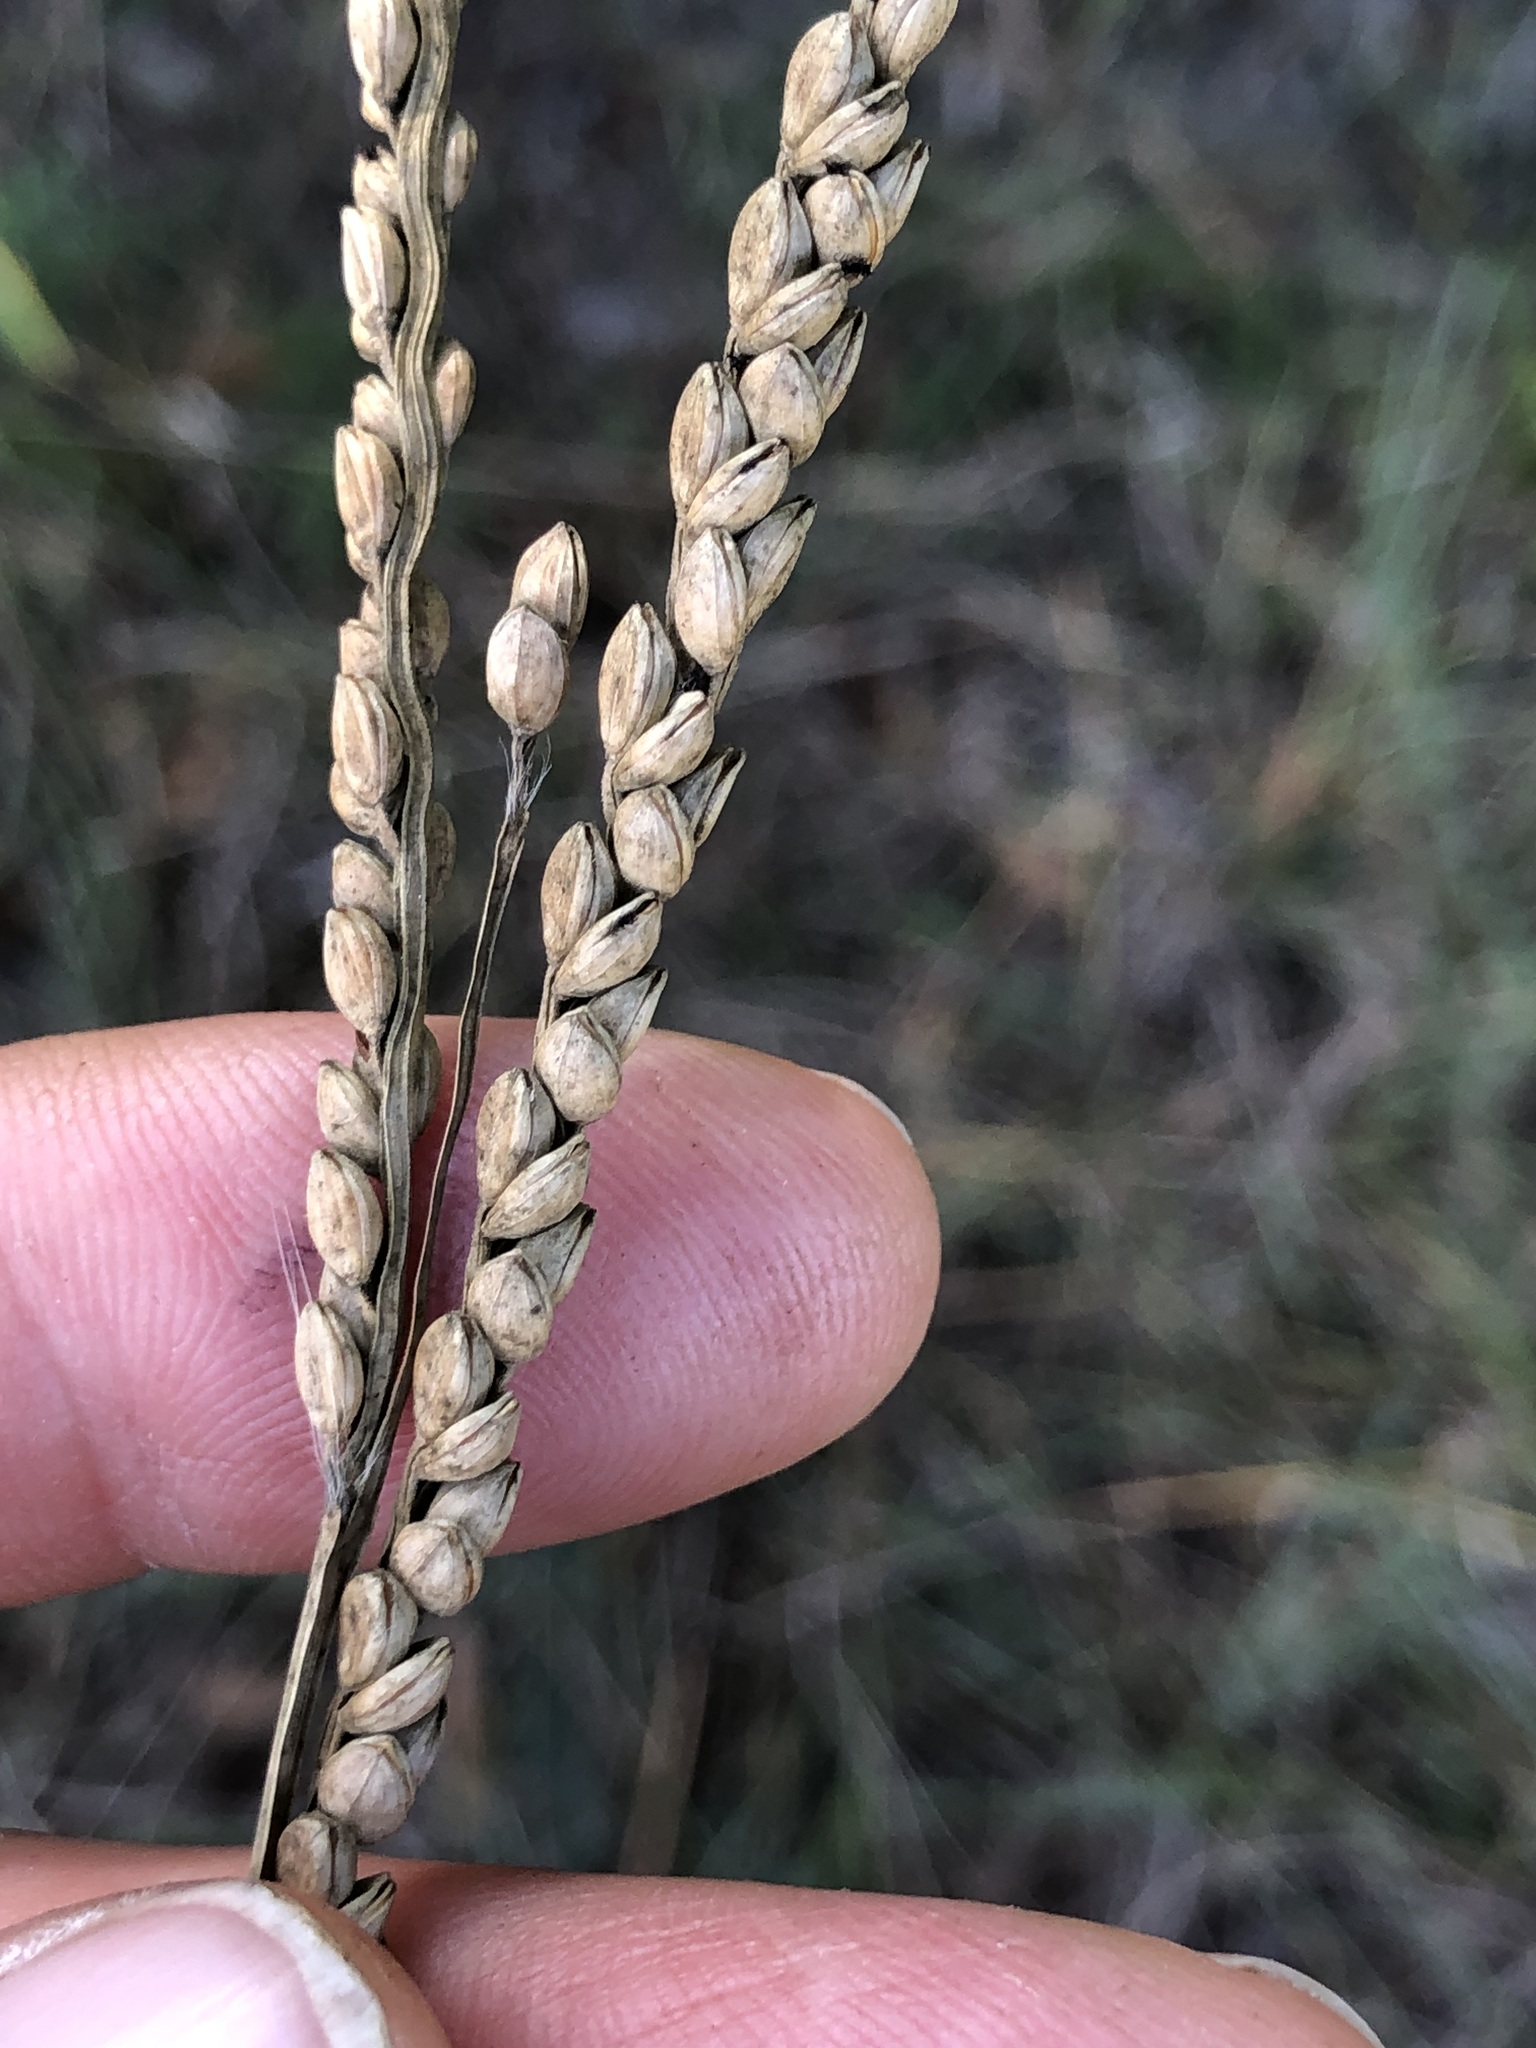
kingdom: Plantae
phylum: Tracheophyta
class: Liliopsida
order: Poales
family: Poaceae
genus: Paspalum
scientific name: Paspalum floridanum
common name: Florida paspalum
